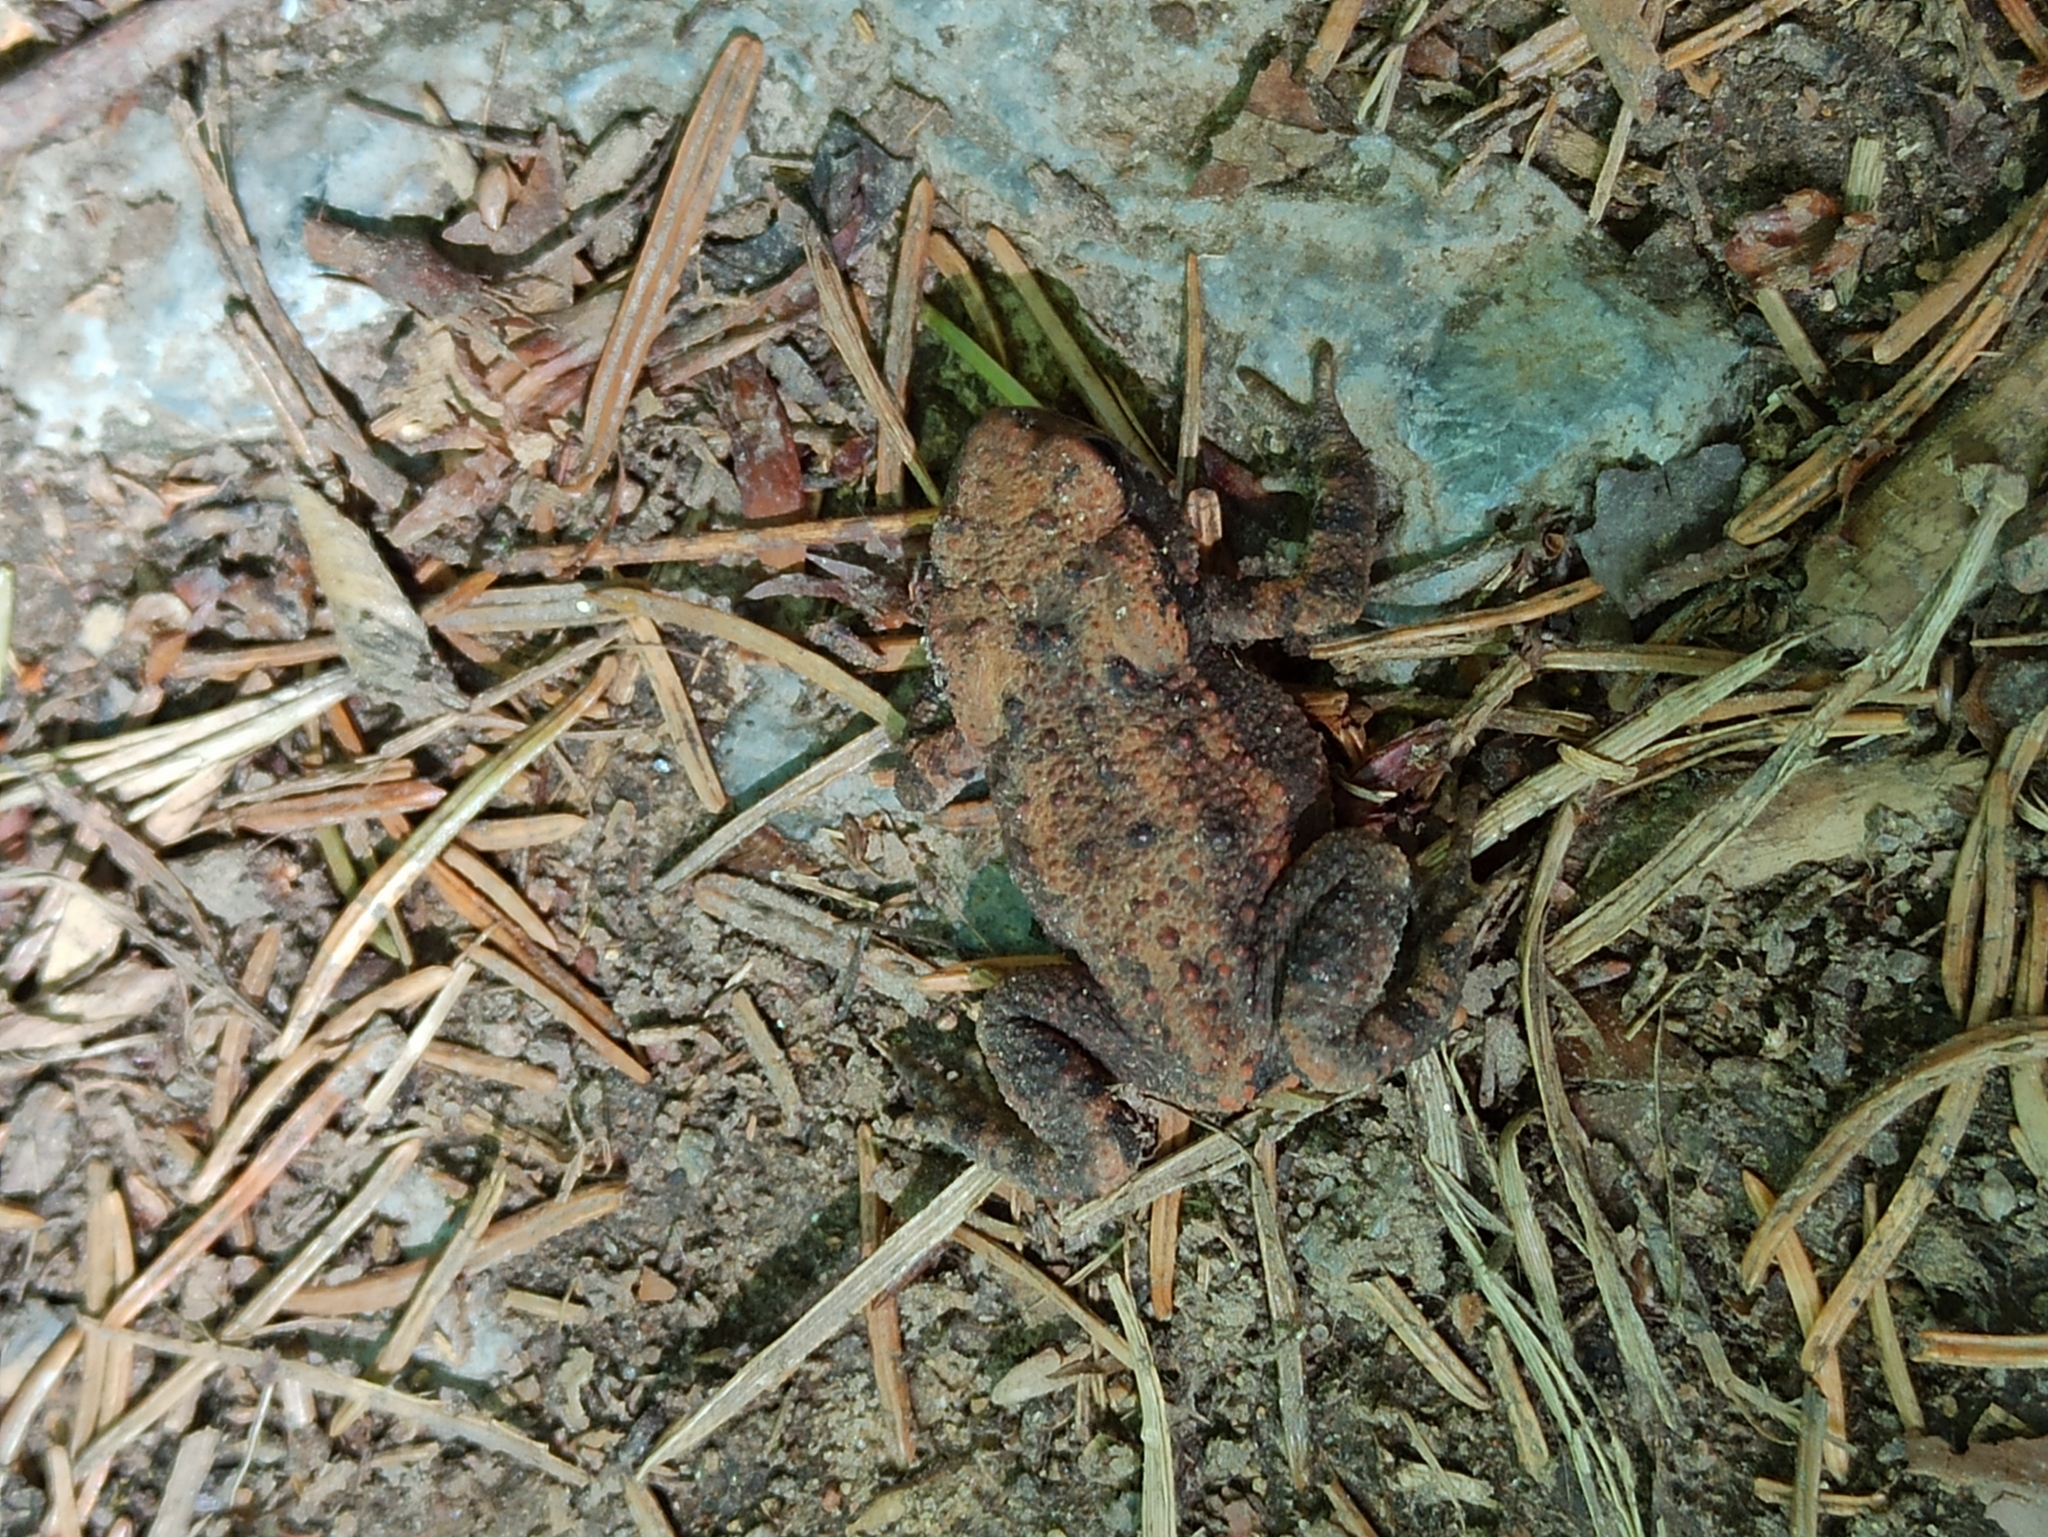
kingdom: Animalia
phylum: Chordata
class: Amphibia
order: Anura
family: Bufonidae
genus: Bufo
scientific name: Bufo bufo
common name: Common toad
